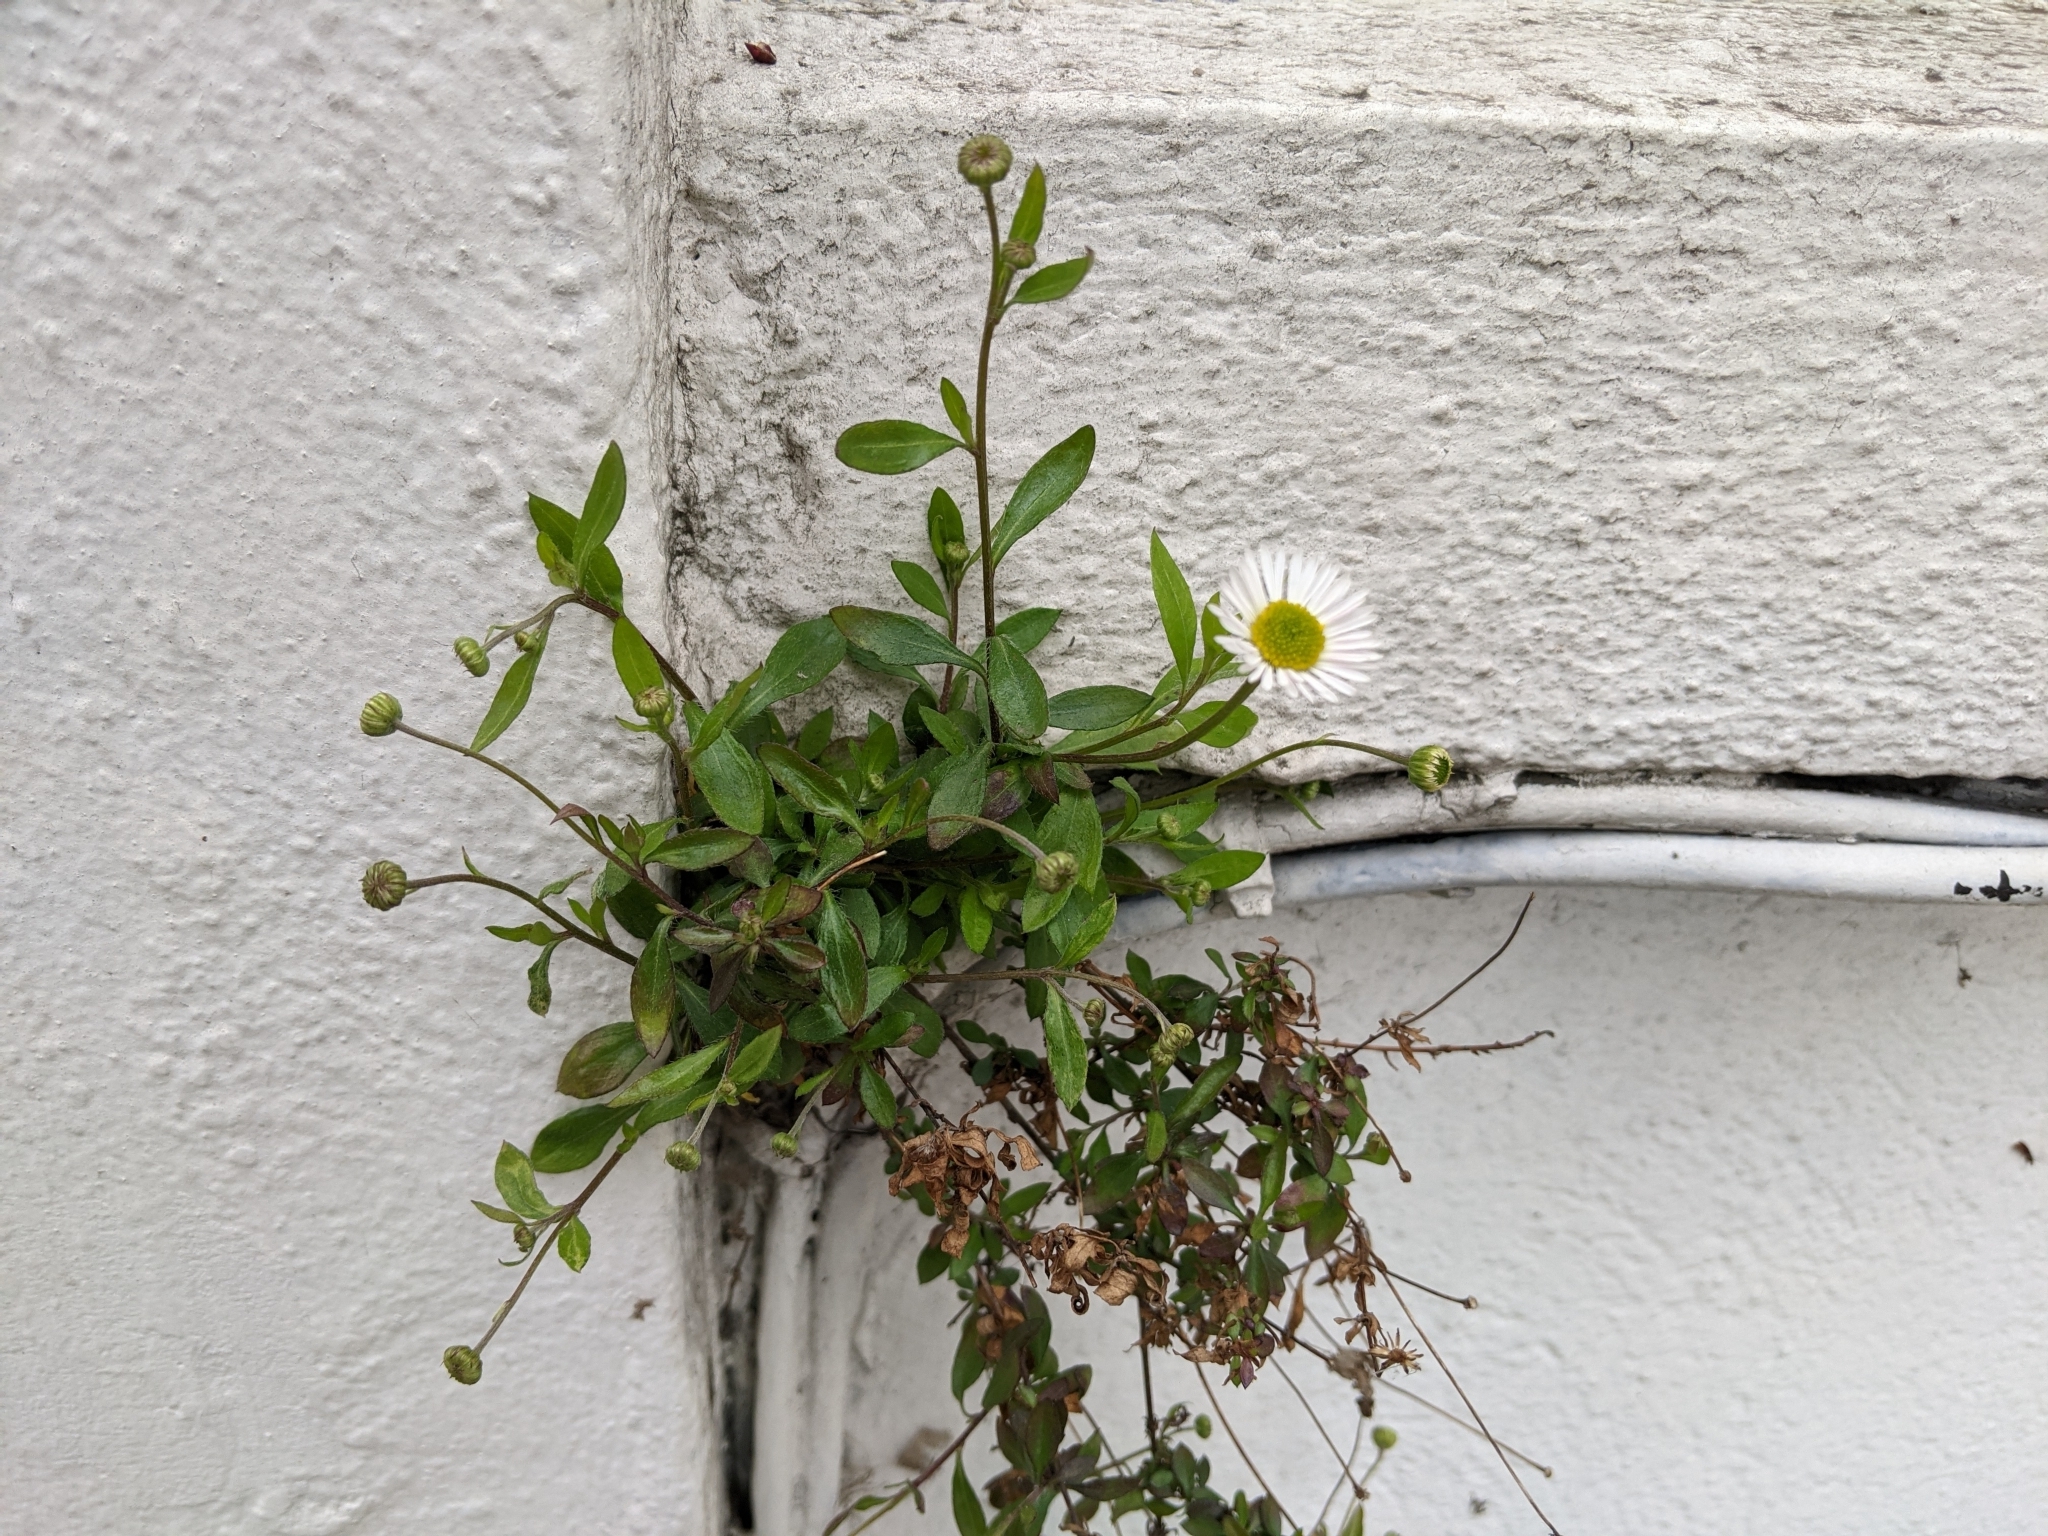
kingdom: Plantae
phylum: Tracheophyta
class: Magnoliopsida
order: Asterales
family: Asteraceae
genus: Erigeron
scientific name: Erigeron karvinskianus
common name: Mexican fleabane
